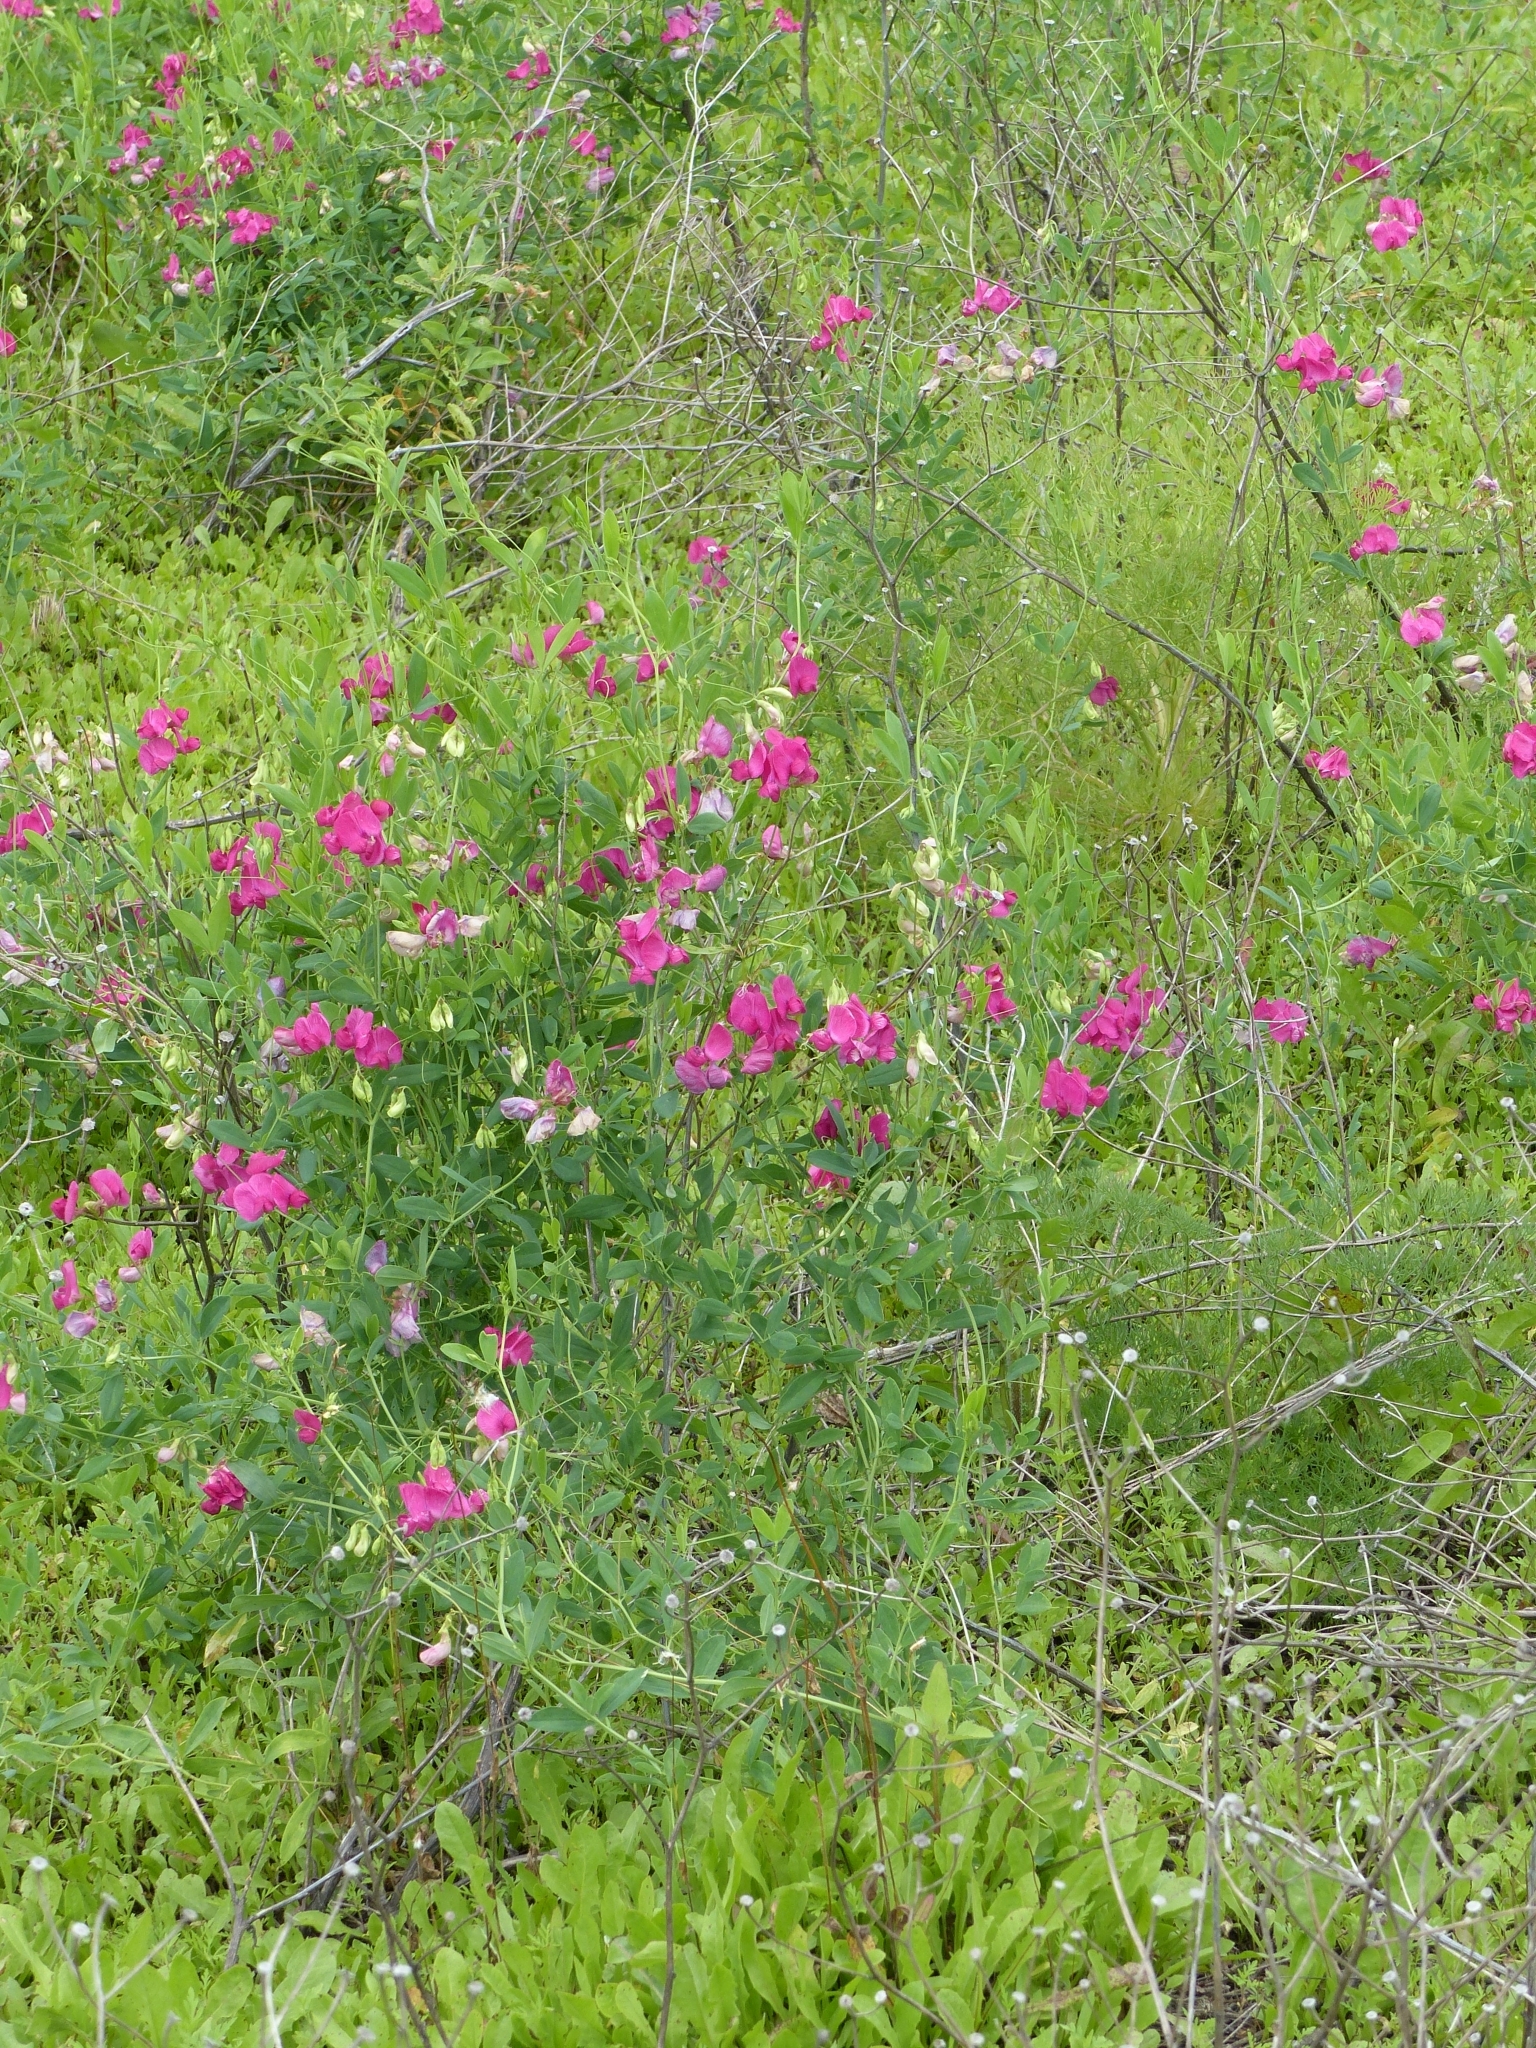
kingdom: Plantae
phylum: Tracheophyta
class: Magnoliopsida
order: Fabales
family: Fabaceae
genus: Lathyrus
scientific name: Lathyrus tuberosus
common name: Tuberous pea
